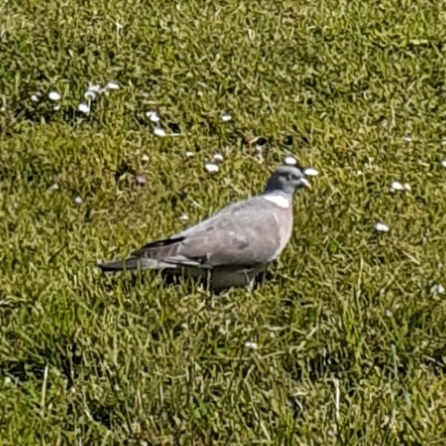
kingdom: Animalia
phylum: Chordata
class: Aves
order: Columbiformes
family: Columbidae
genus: Columba
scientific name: Columba palumbus
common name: Common wood pigeon
